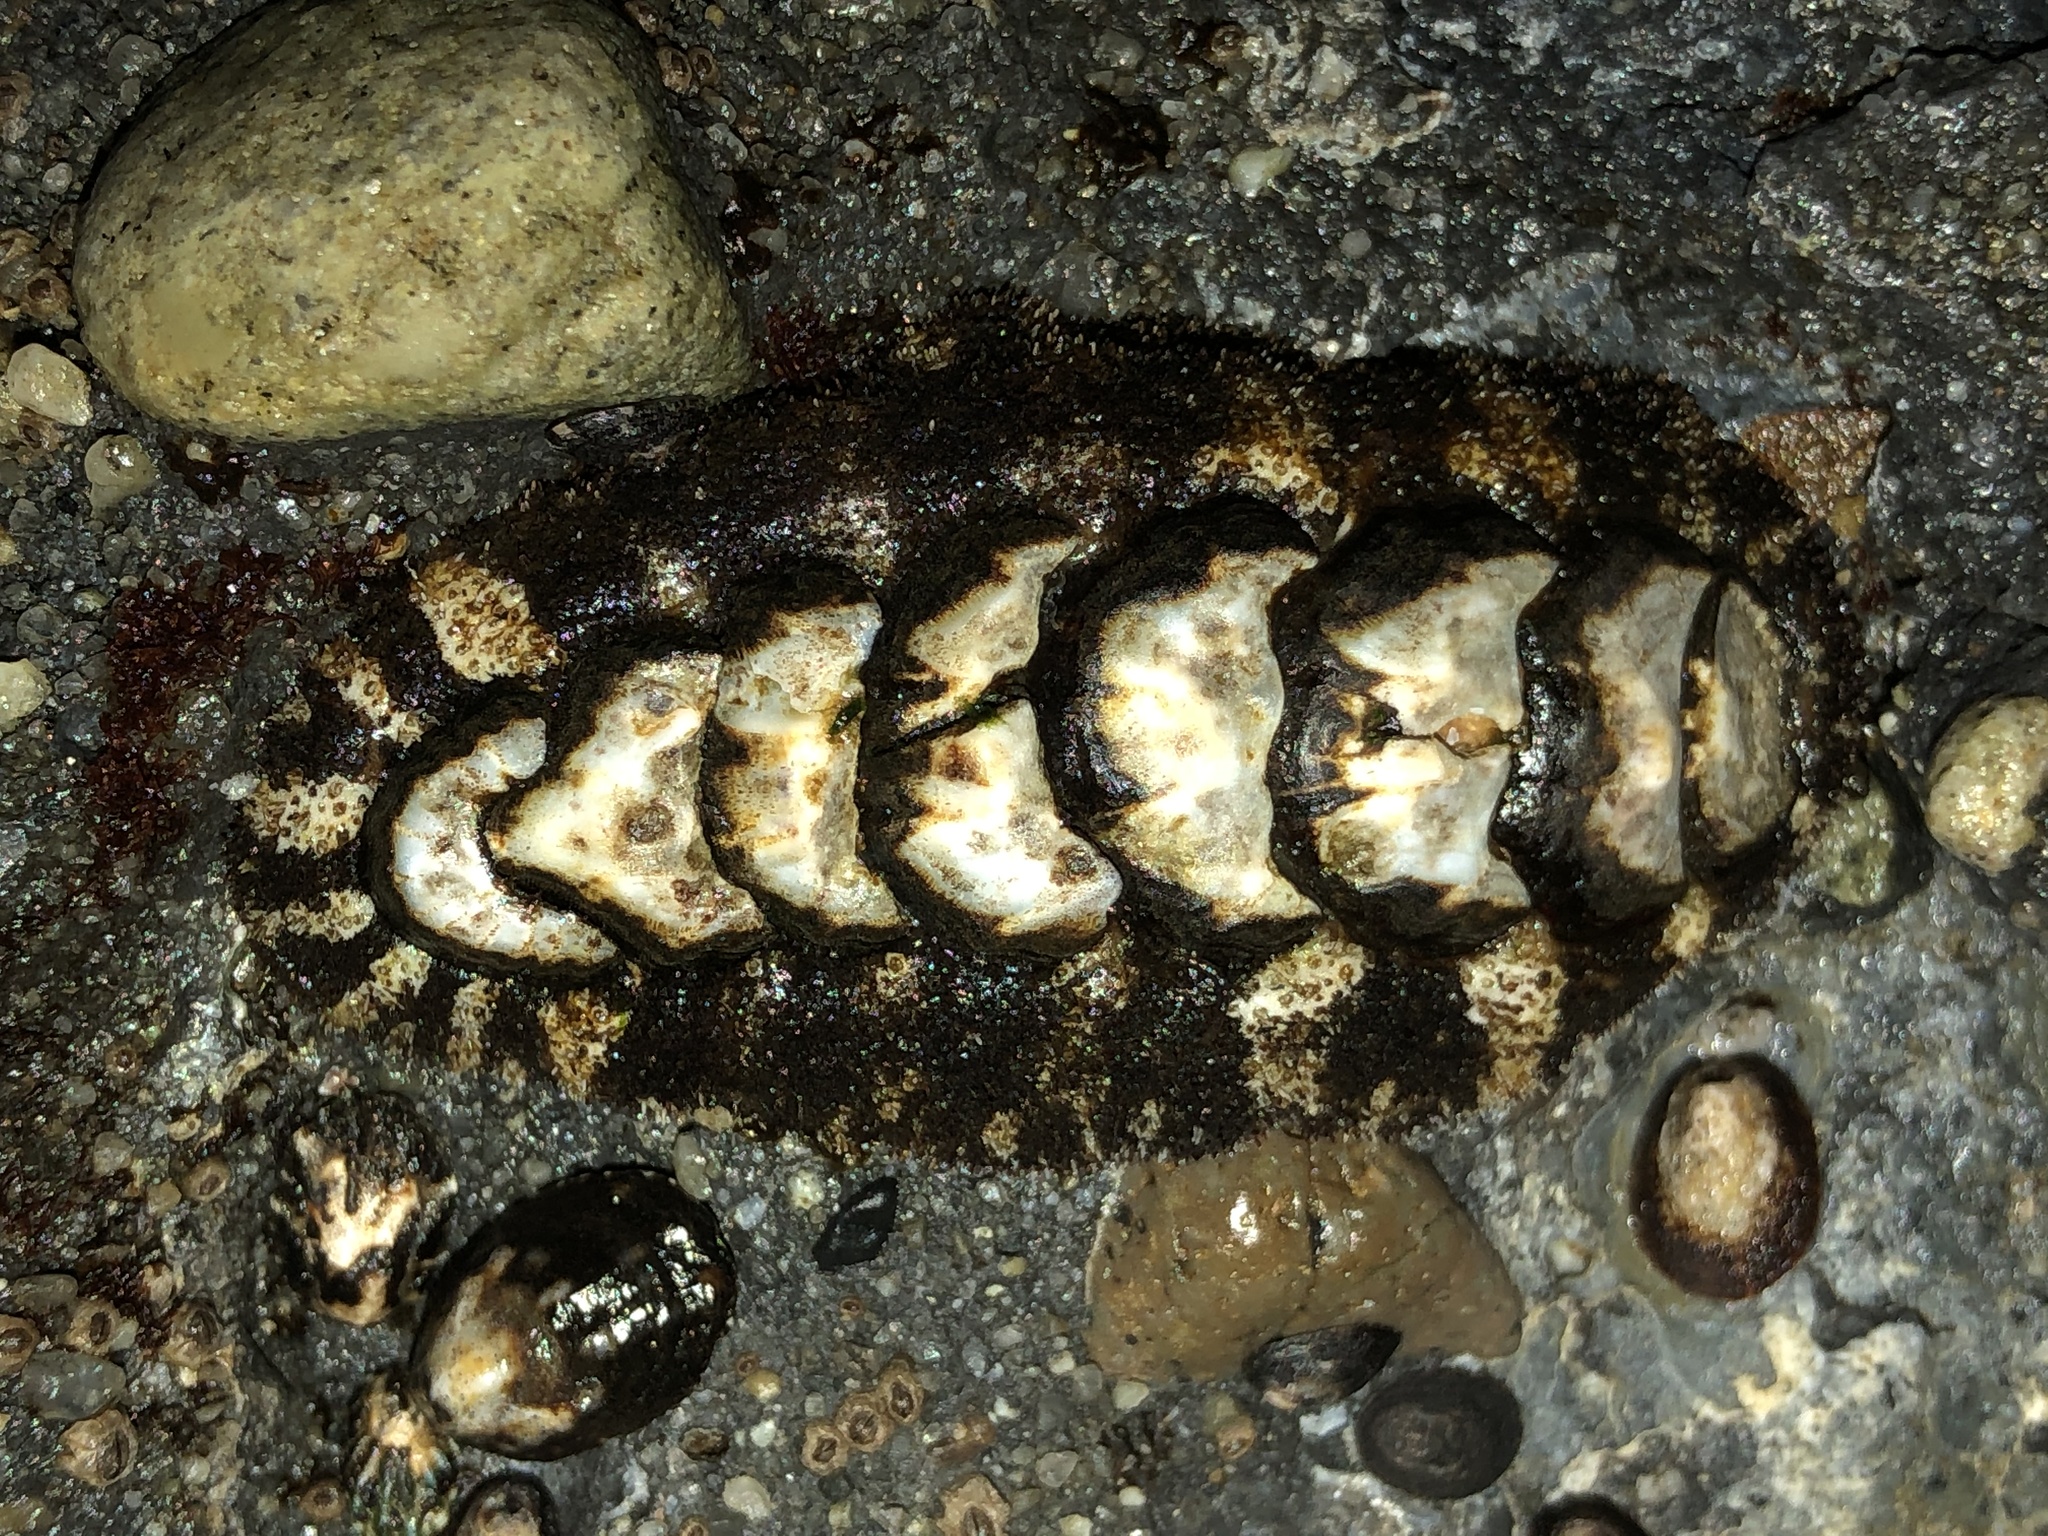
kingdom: Animalia
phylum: Mollusca
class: Polyplacophora
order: Chitonida
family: Tonicellidae
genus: Nuttallina
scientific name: Nuttallina californica
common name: California nuttall chiton
